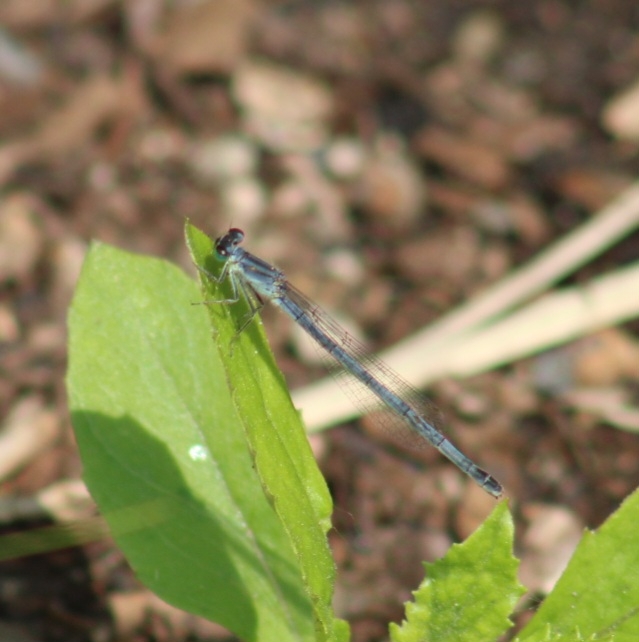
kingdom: Animalia
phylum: Arthropoda
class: Insecta
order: Odonata
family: Coenagrionidae
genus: Ischnura
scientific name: Ischnura verticalis
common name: Eastern forktail
